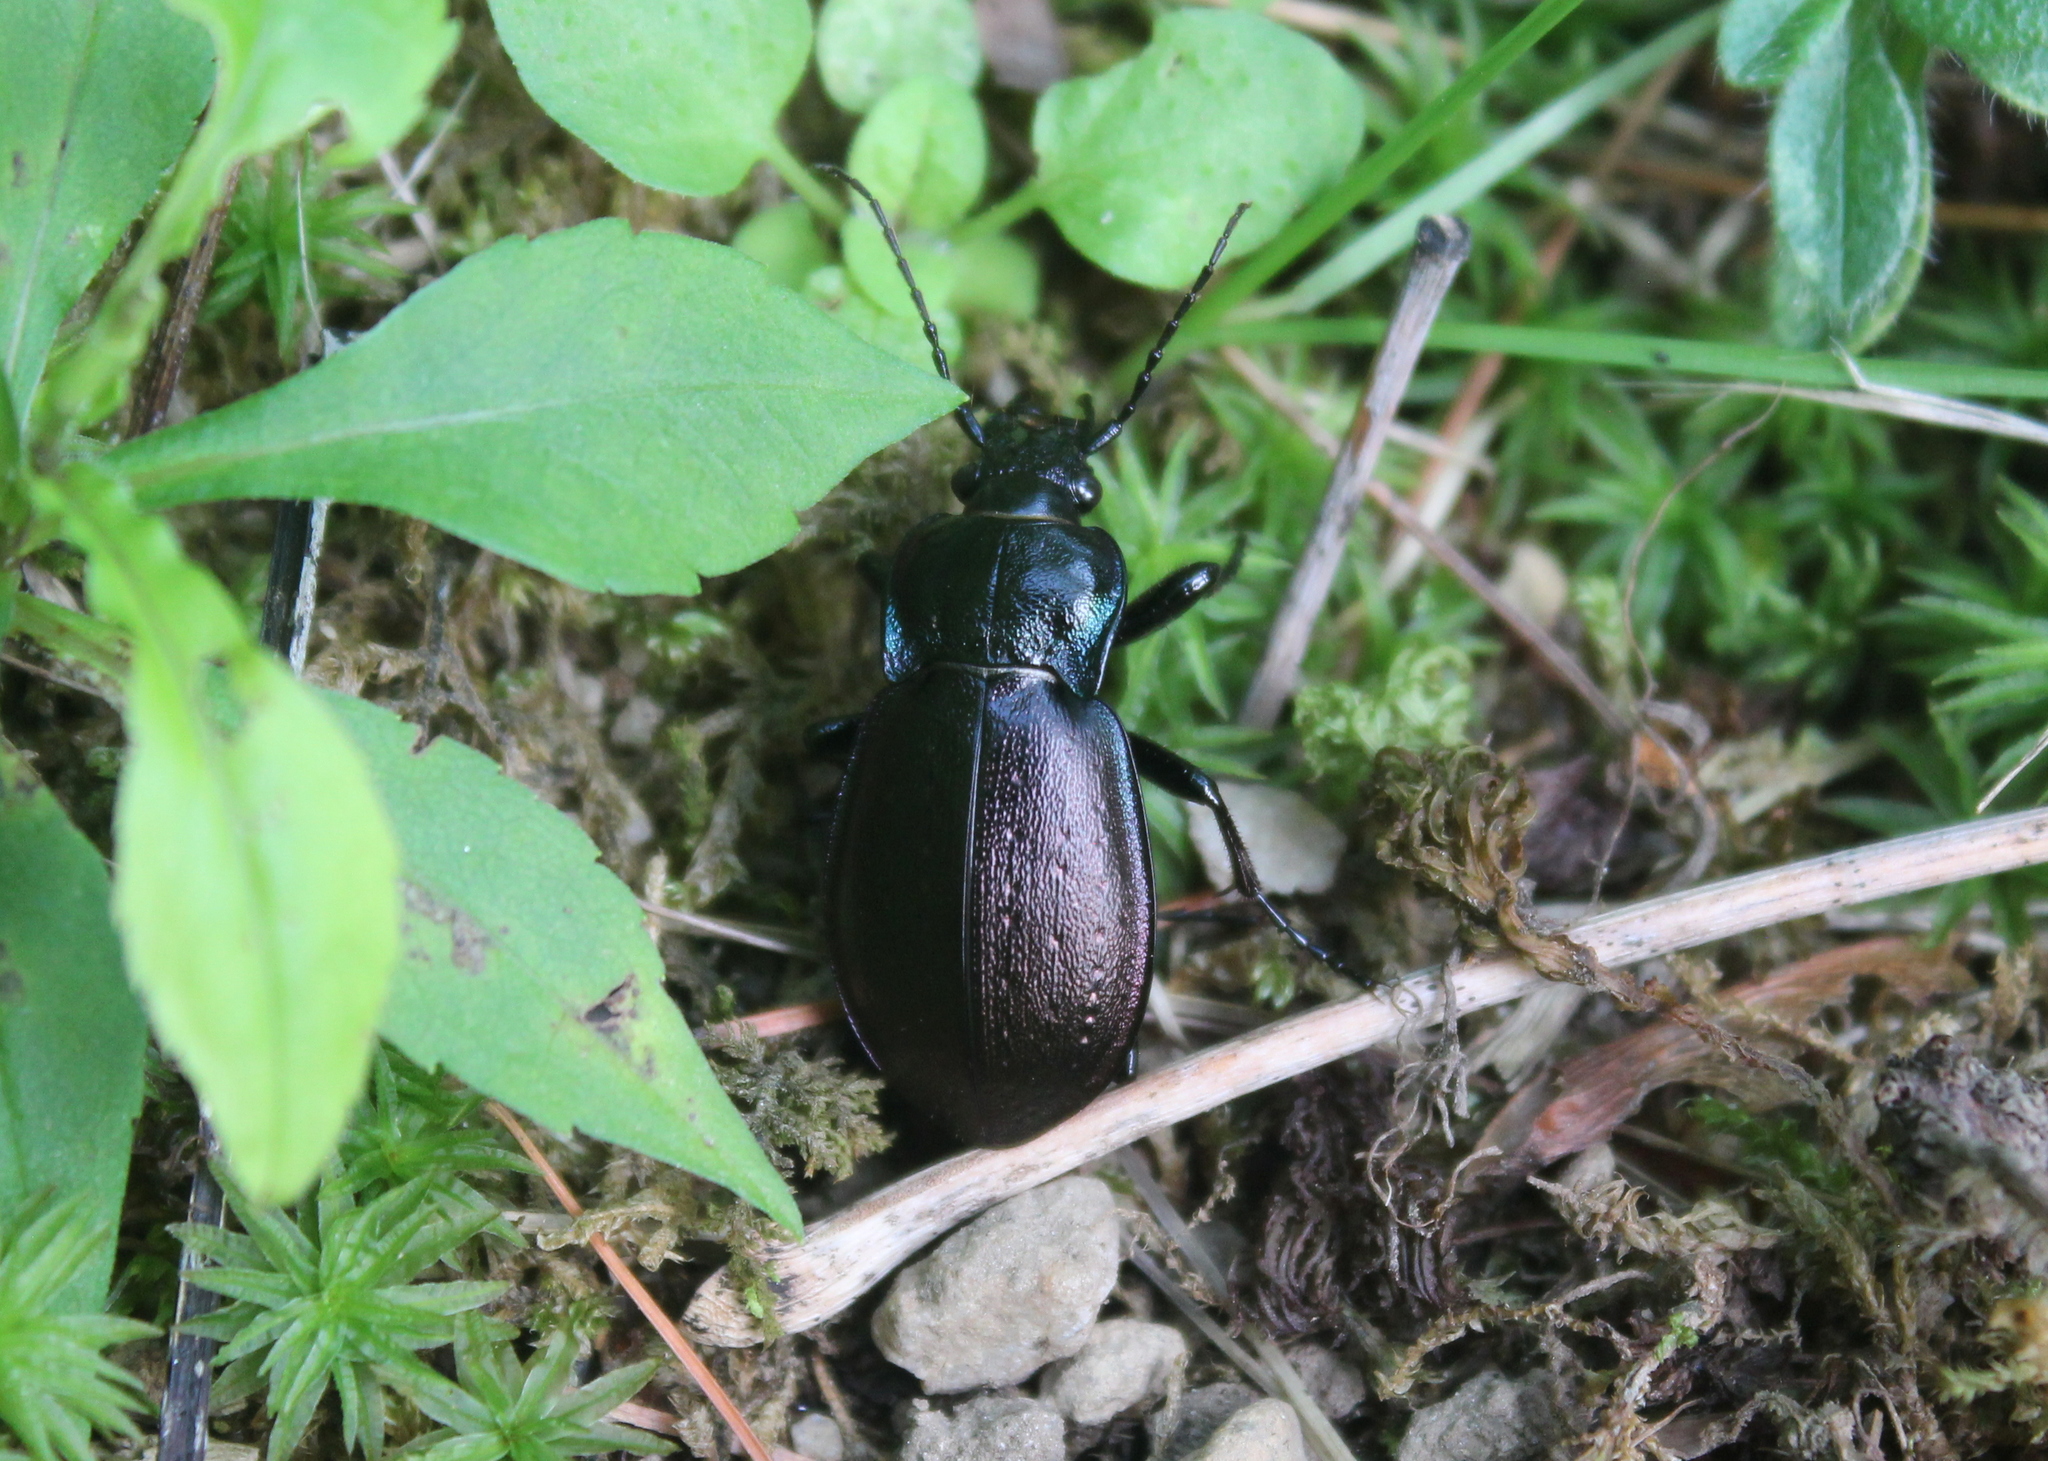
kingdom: Animalia
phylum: Arthropoda
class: Insecta
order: Coleoptera
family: Carabidae
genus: Carabus
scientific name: Carabus nemoralis
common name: European ground beetle
